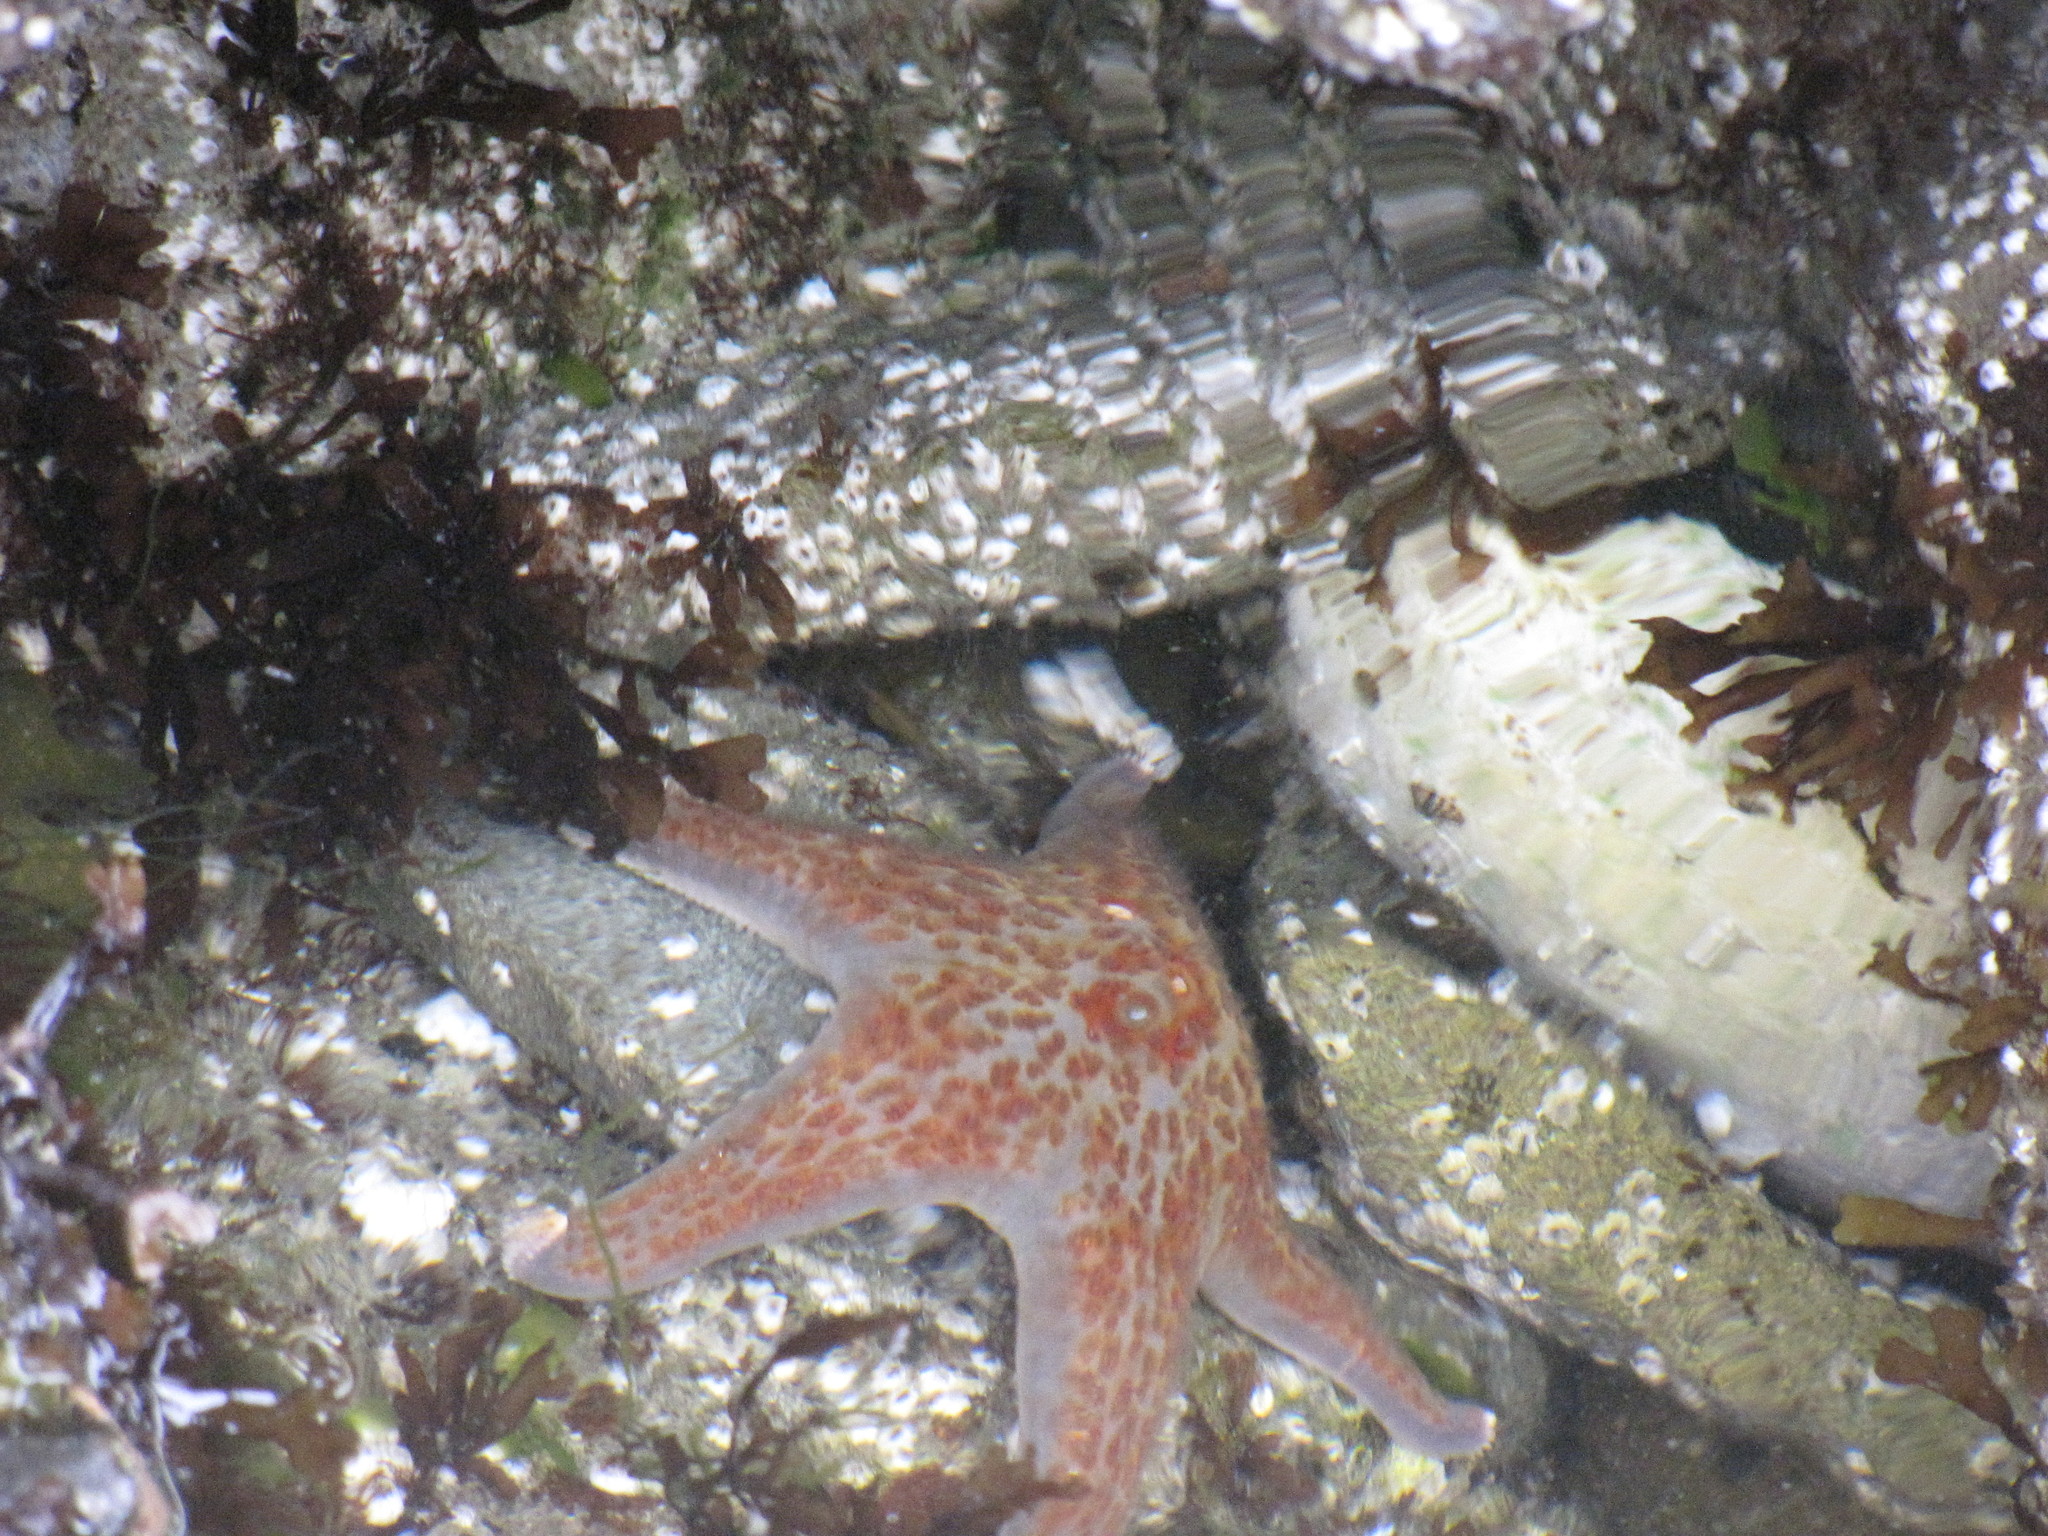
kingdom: Animalia
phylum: Echinodermata
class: Asteroidea
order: Valvatida
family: Asteropseidae
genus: Dermasterias
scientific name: Dermasterias imbricata
